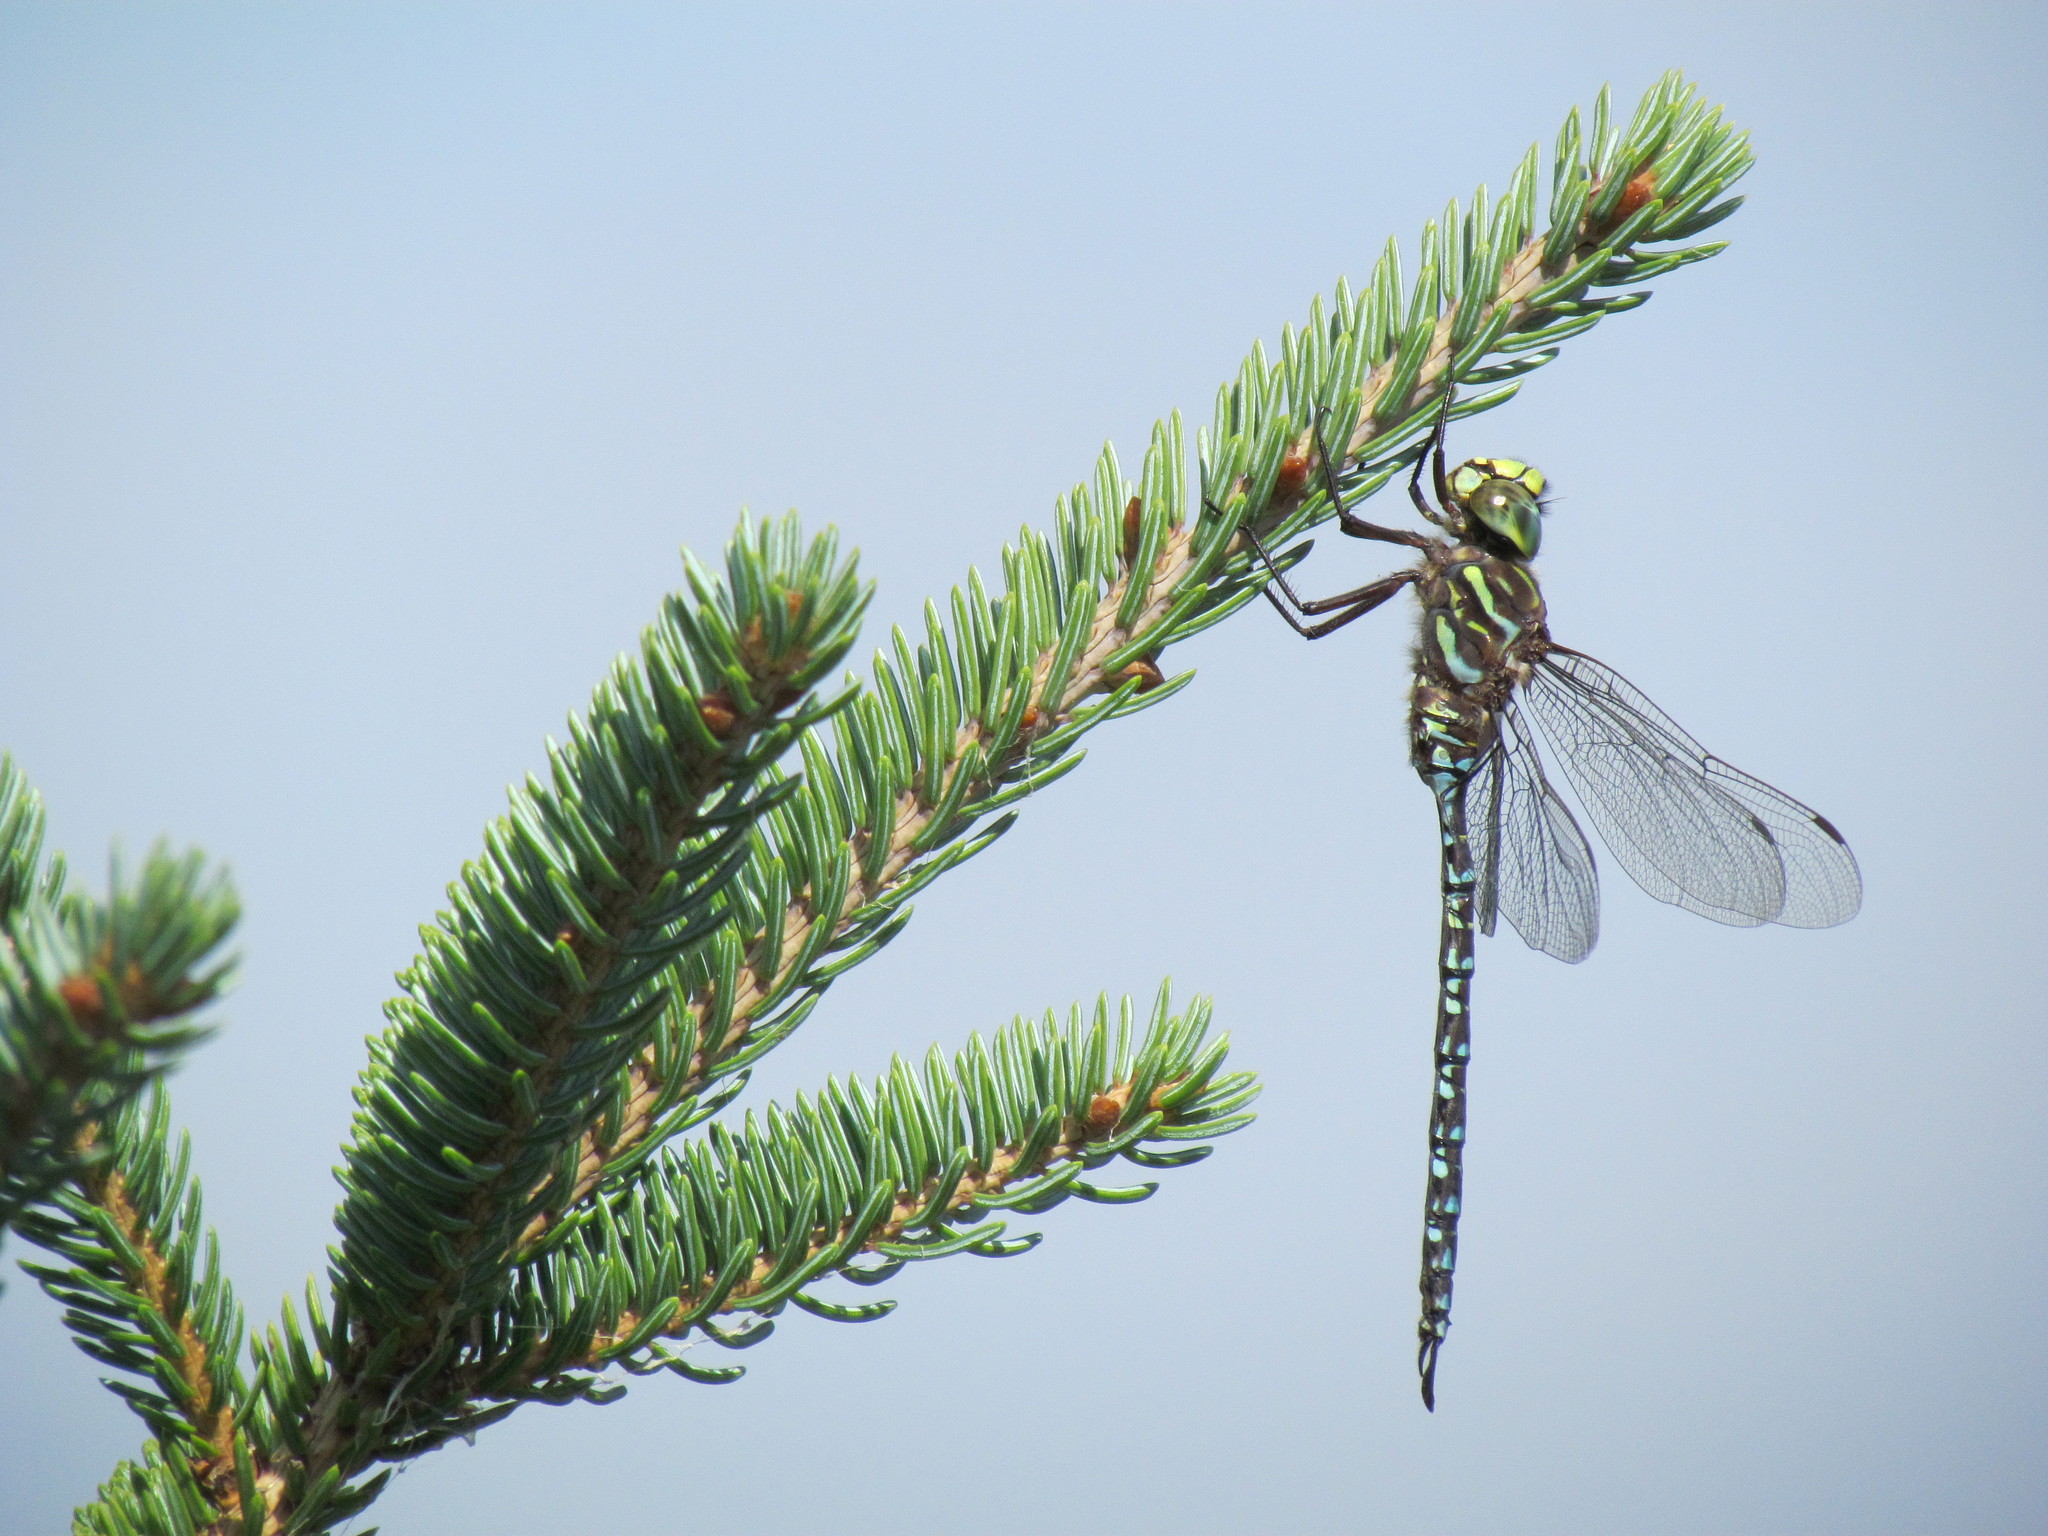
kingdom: Animalia
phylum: Arthropoda
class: Insecta
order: Odonata
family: Aeshnidae
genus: Aeshna
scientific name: Aeshna subarctica
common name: Subarctic darner
